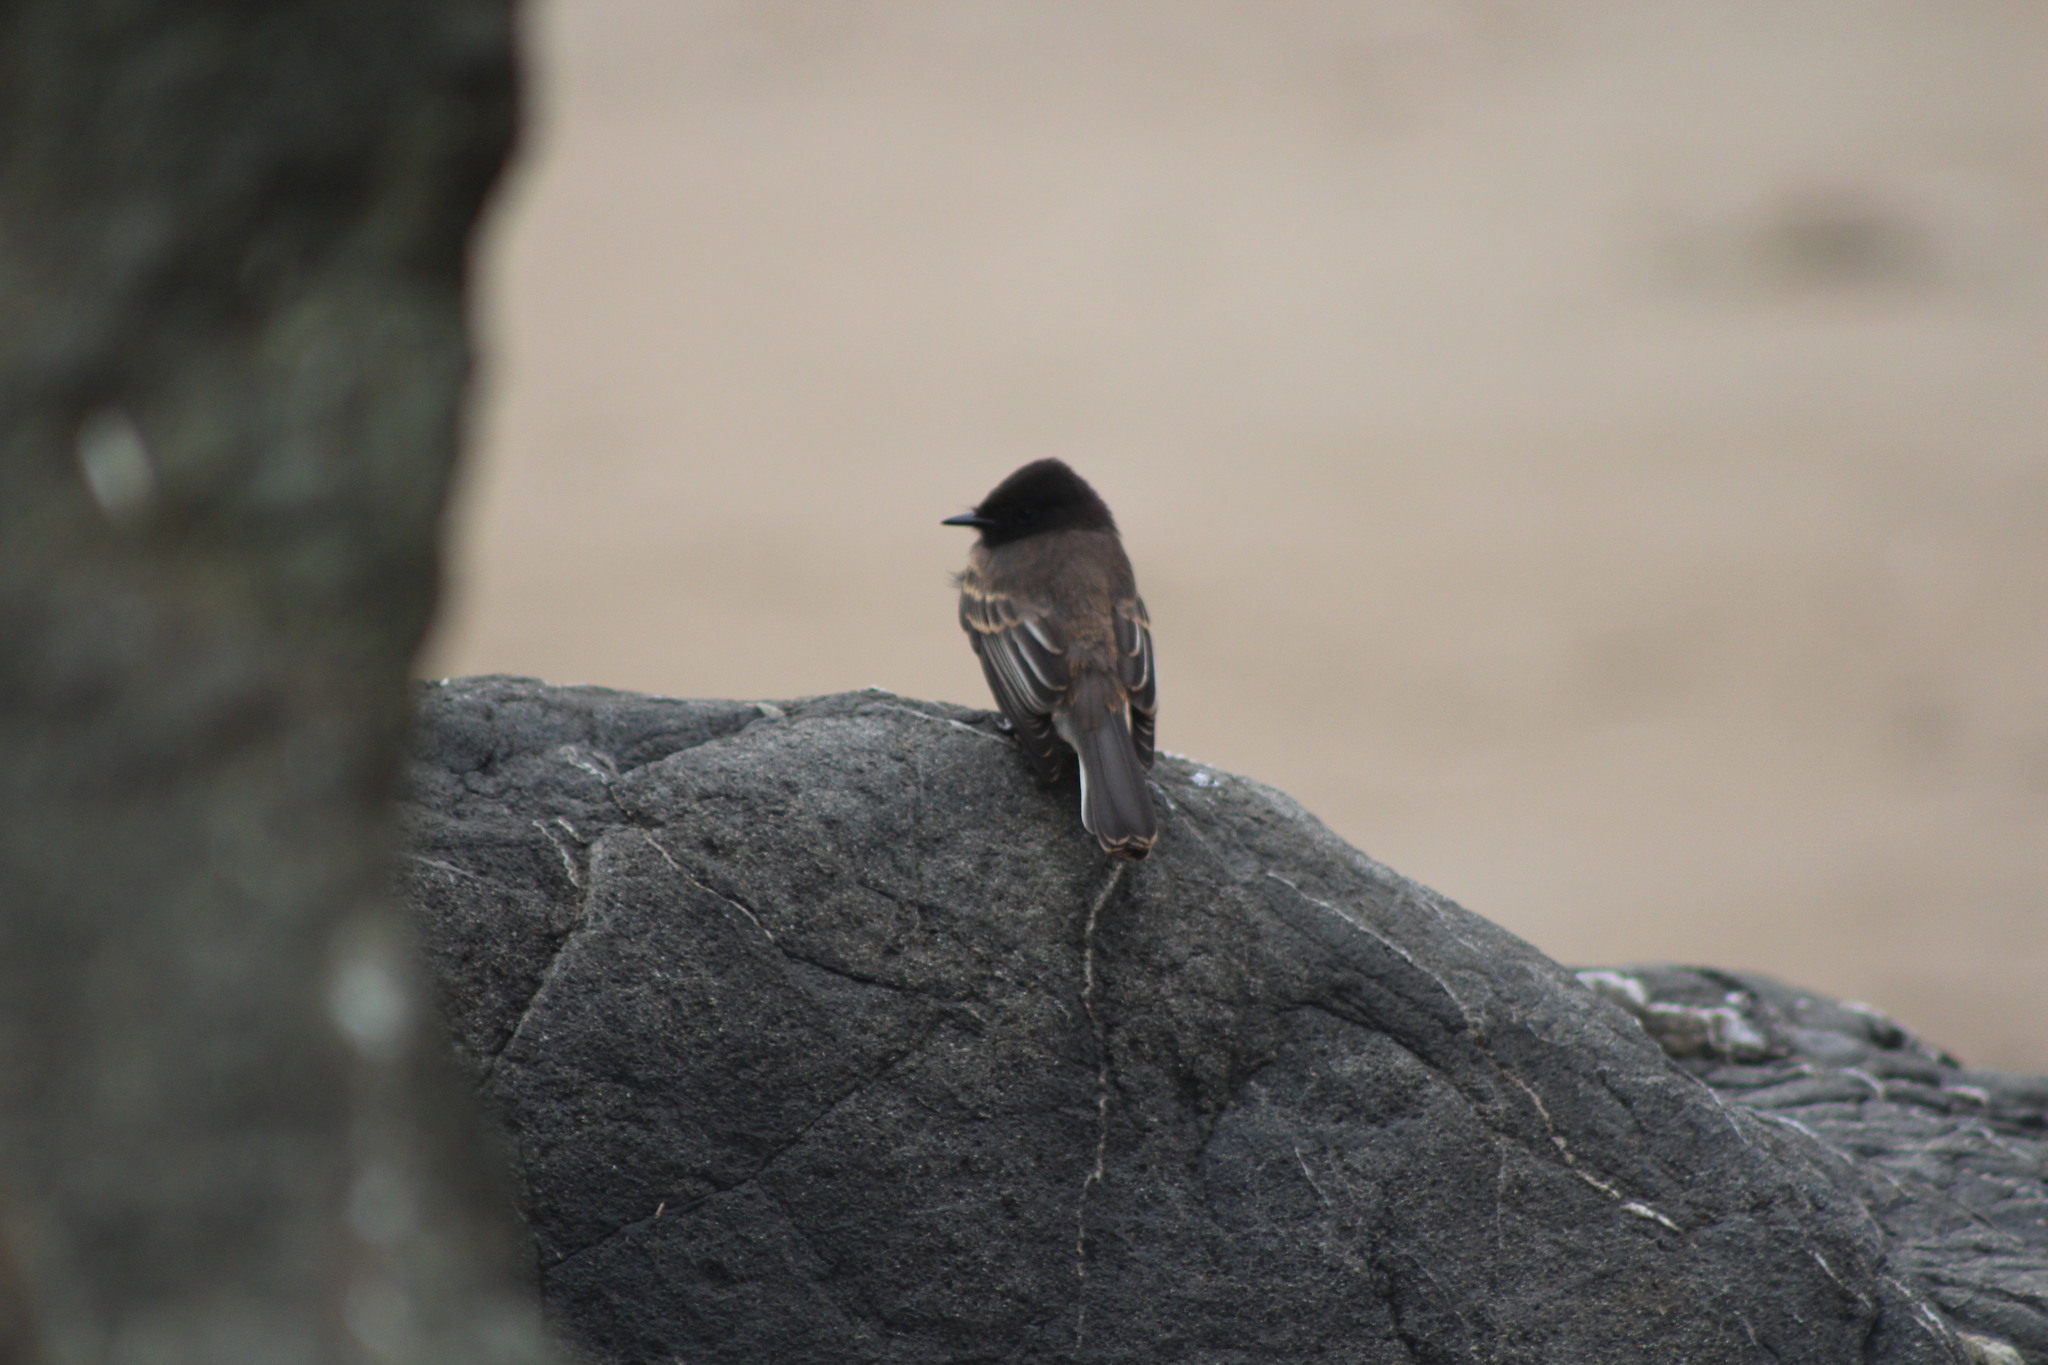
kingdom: Animalia
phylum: Chordata
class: Aves
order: Passeriformes
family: Tyrannidae
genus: Sayornis
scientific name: Sayornis nigricans
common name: Black phoebe
